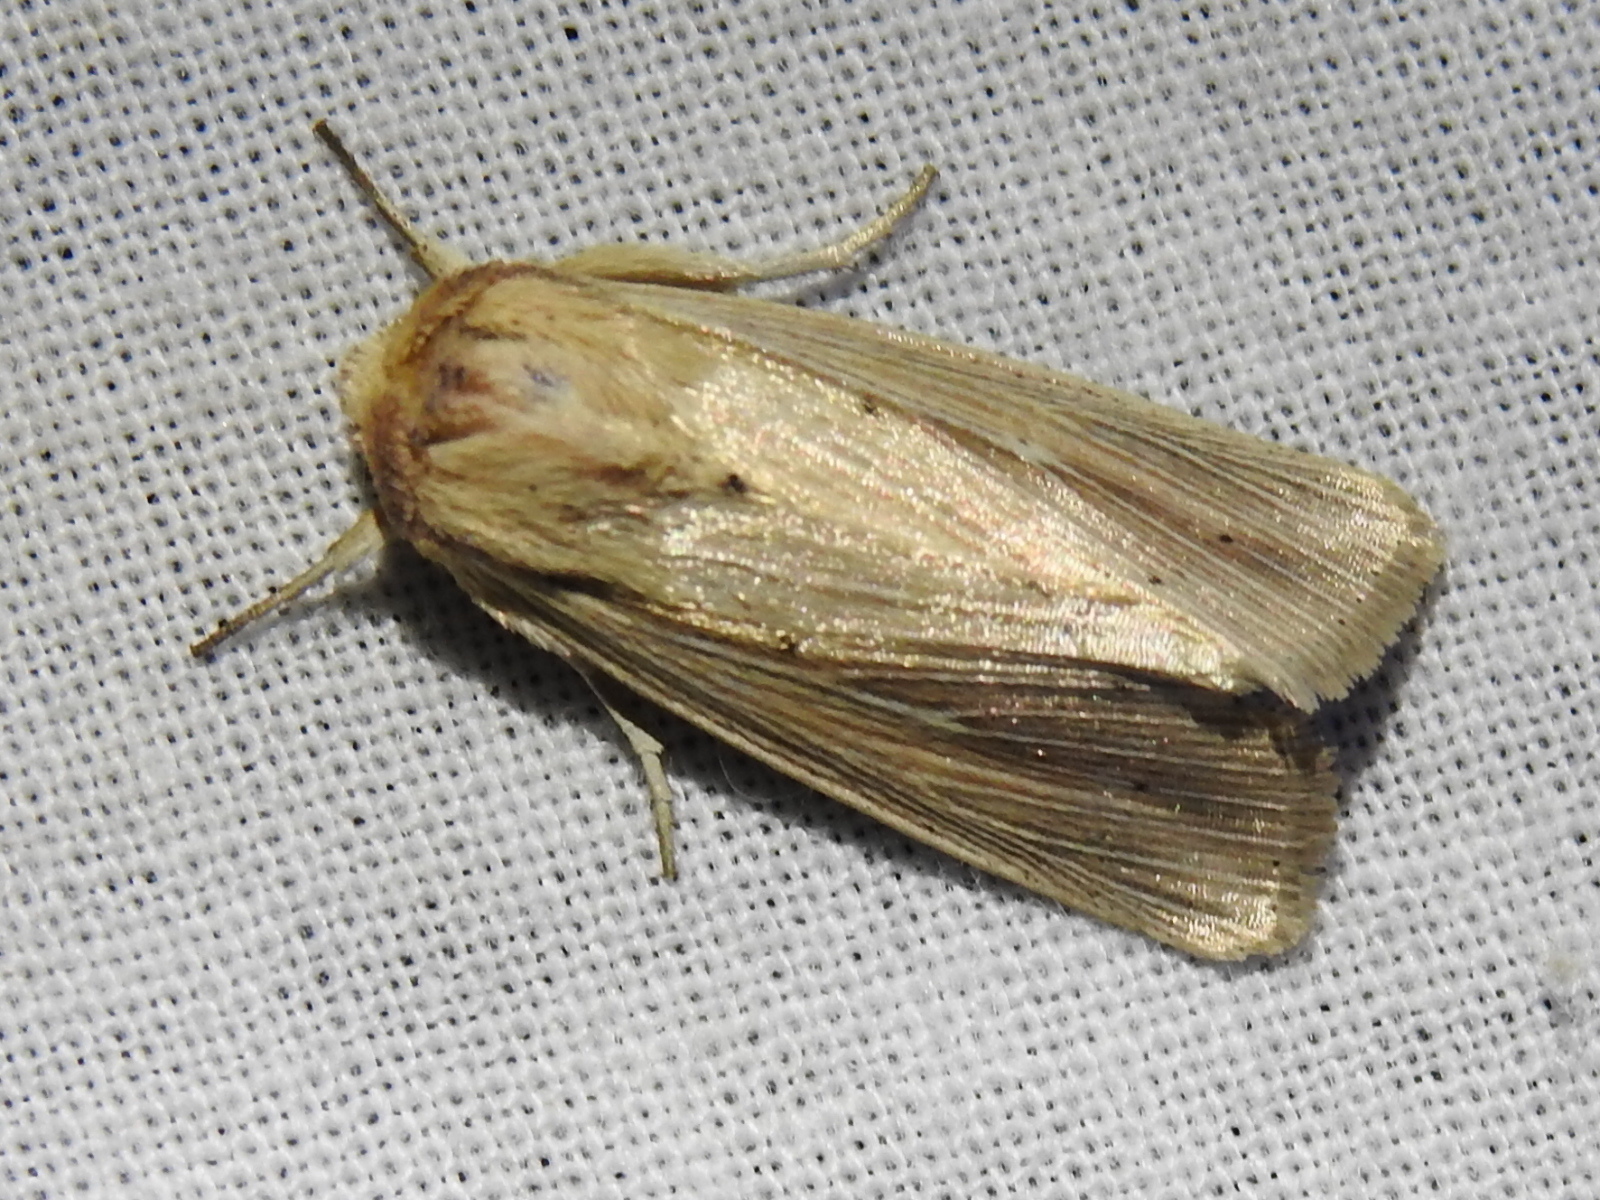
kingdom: Animalia
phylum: Arthropoda
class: Insecta
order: Lepidoptera
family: Noctuidae
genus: Leucania
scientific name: Leucania adjuta
